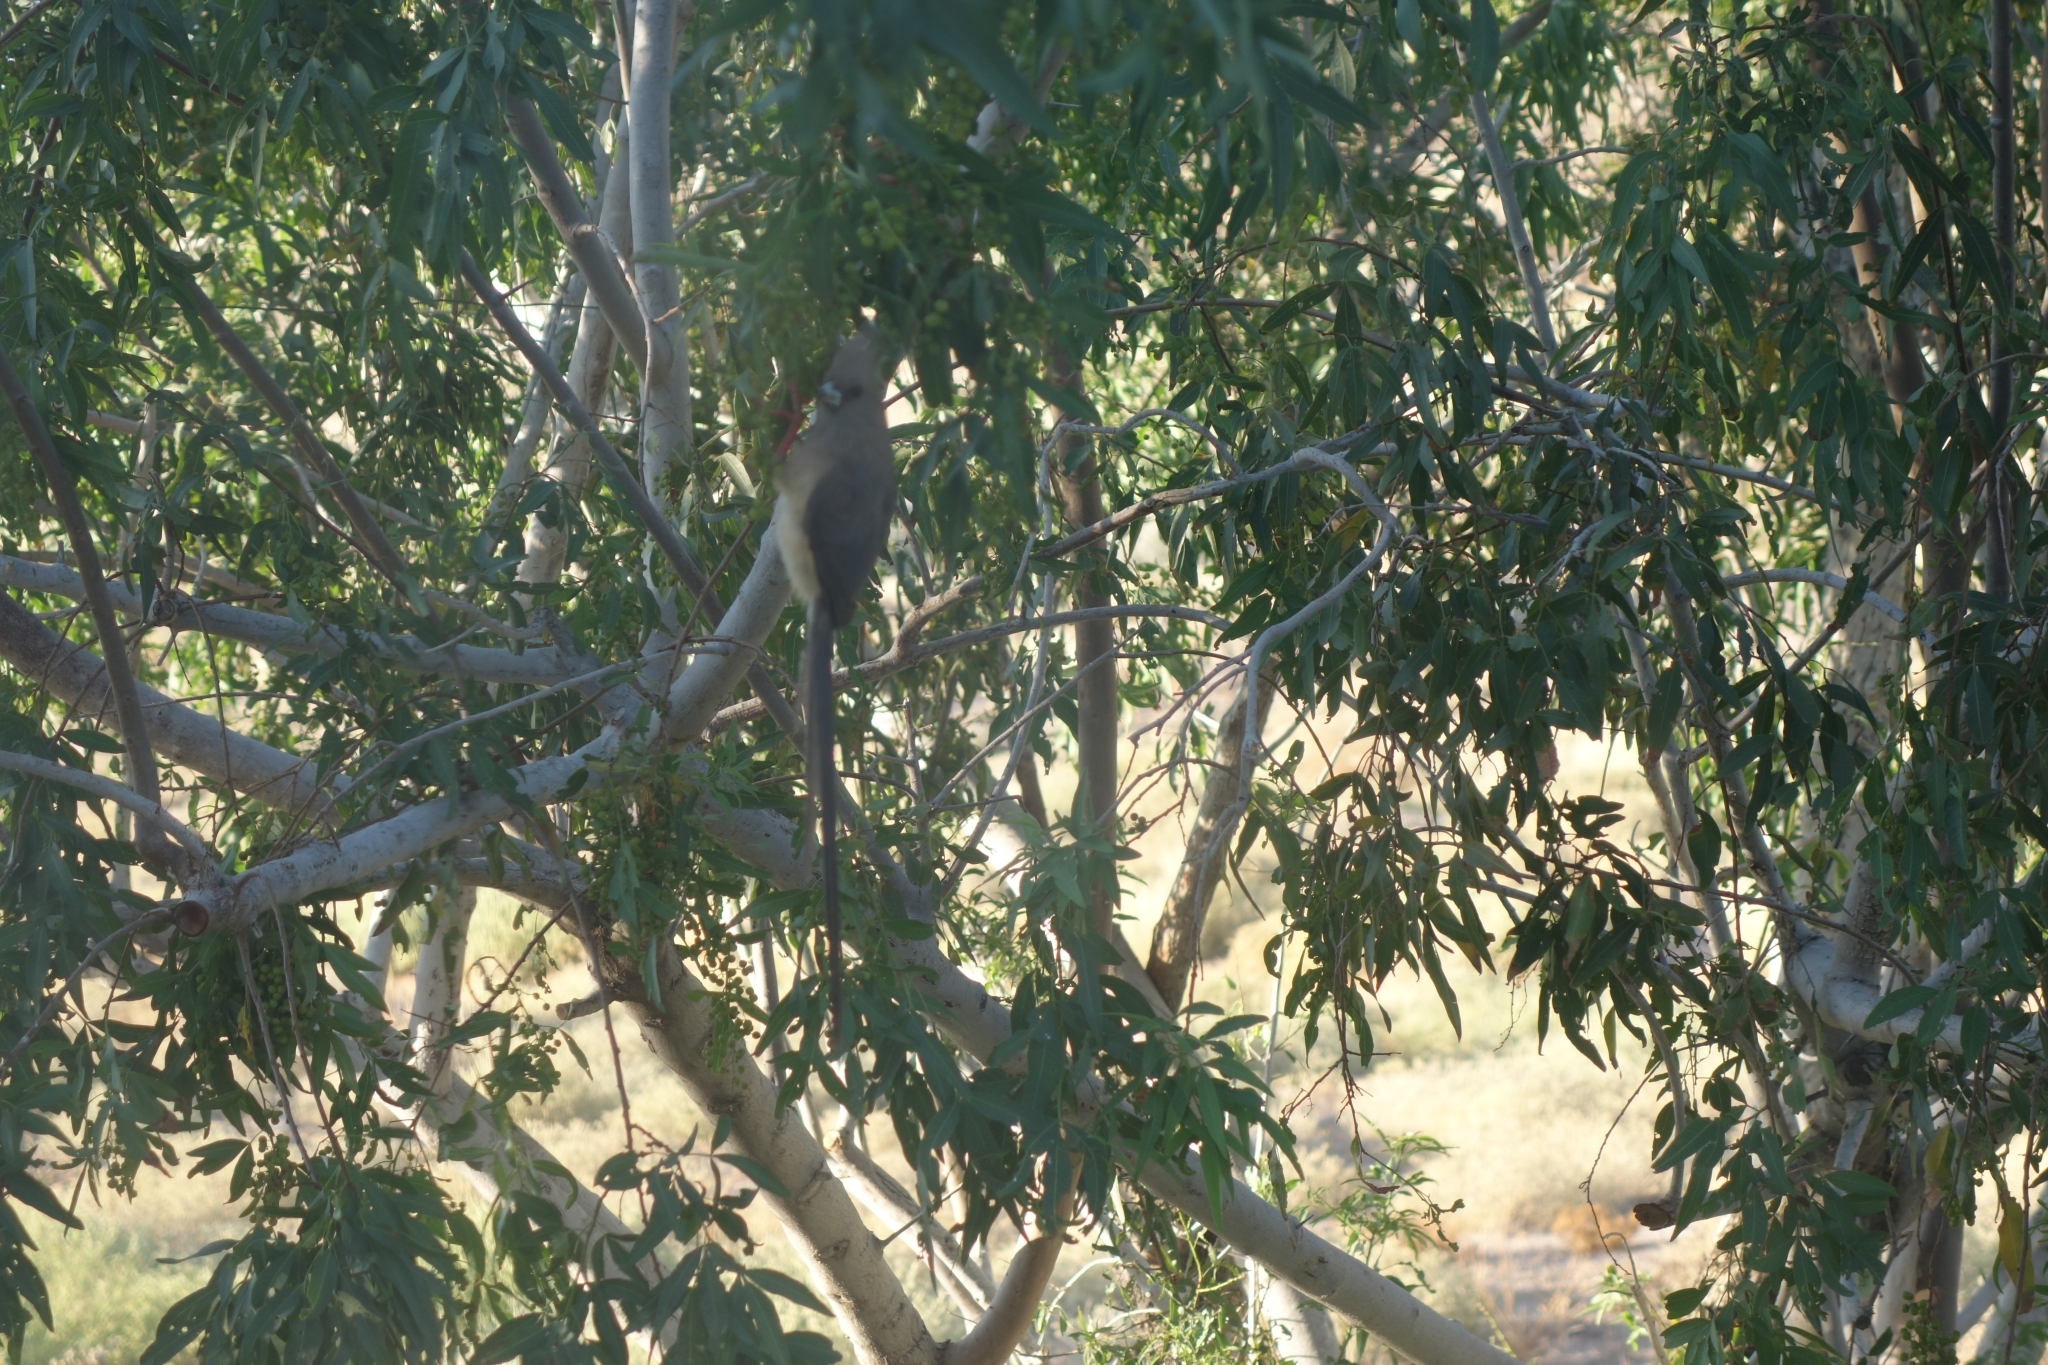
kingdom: Animalia
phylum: Chordata
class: Aves
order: Coliiformes
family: Coliidae
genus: Colius
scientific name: Colius colius
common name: White-backed mousebird
